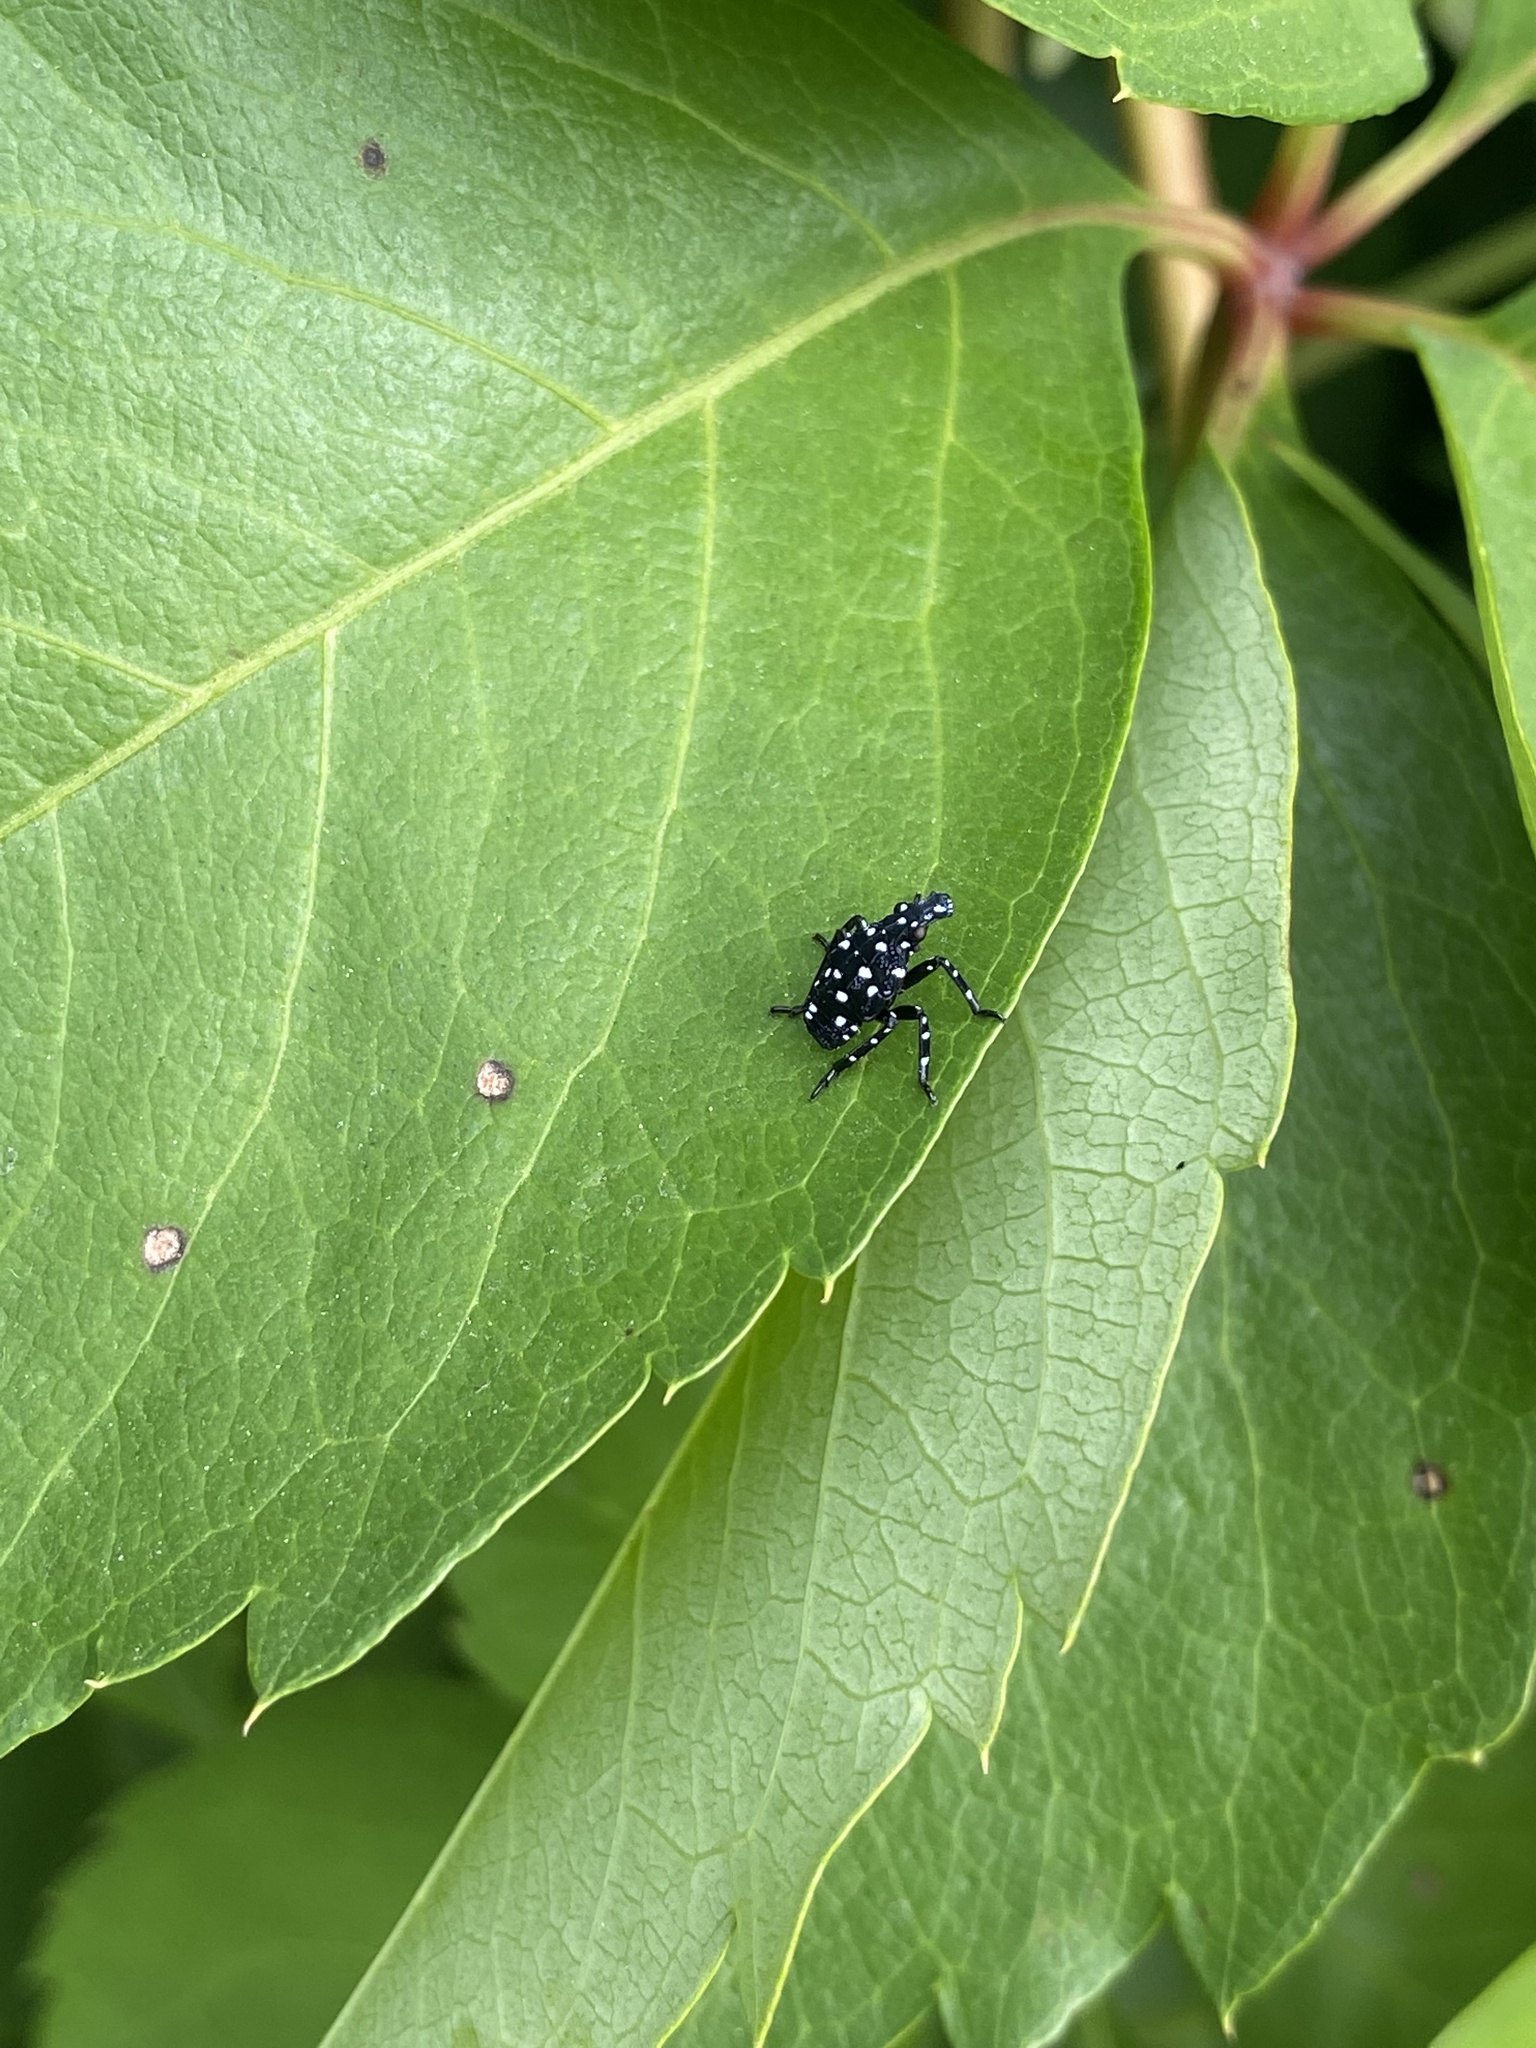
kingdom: Animalia
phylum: Arthropoda
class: Insecta
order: Hemiptera
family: Fulgoridae
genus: Lycorma
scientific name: Lycorma delicatula
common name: Spotted lanternfly
